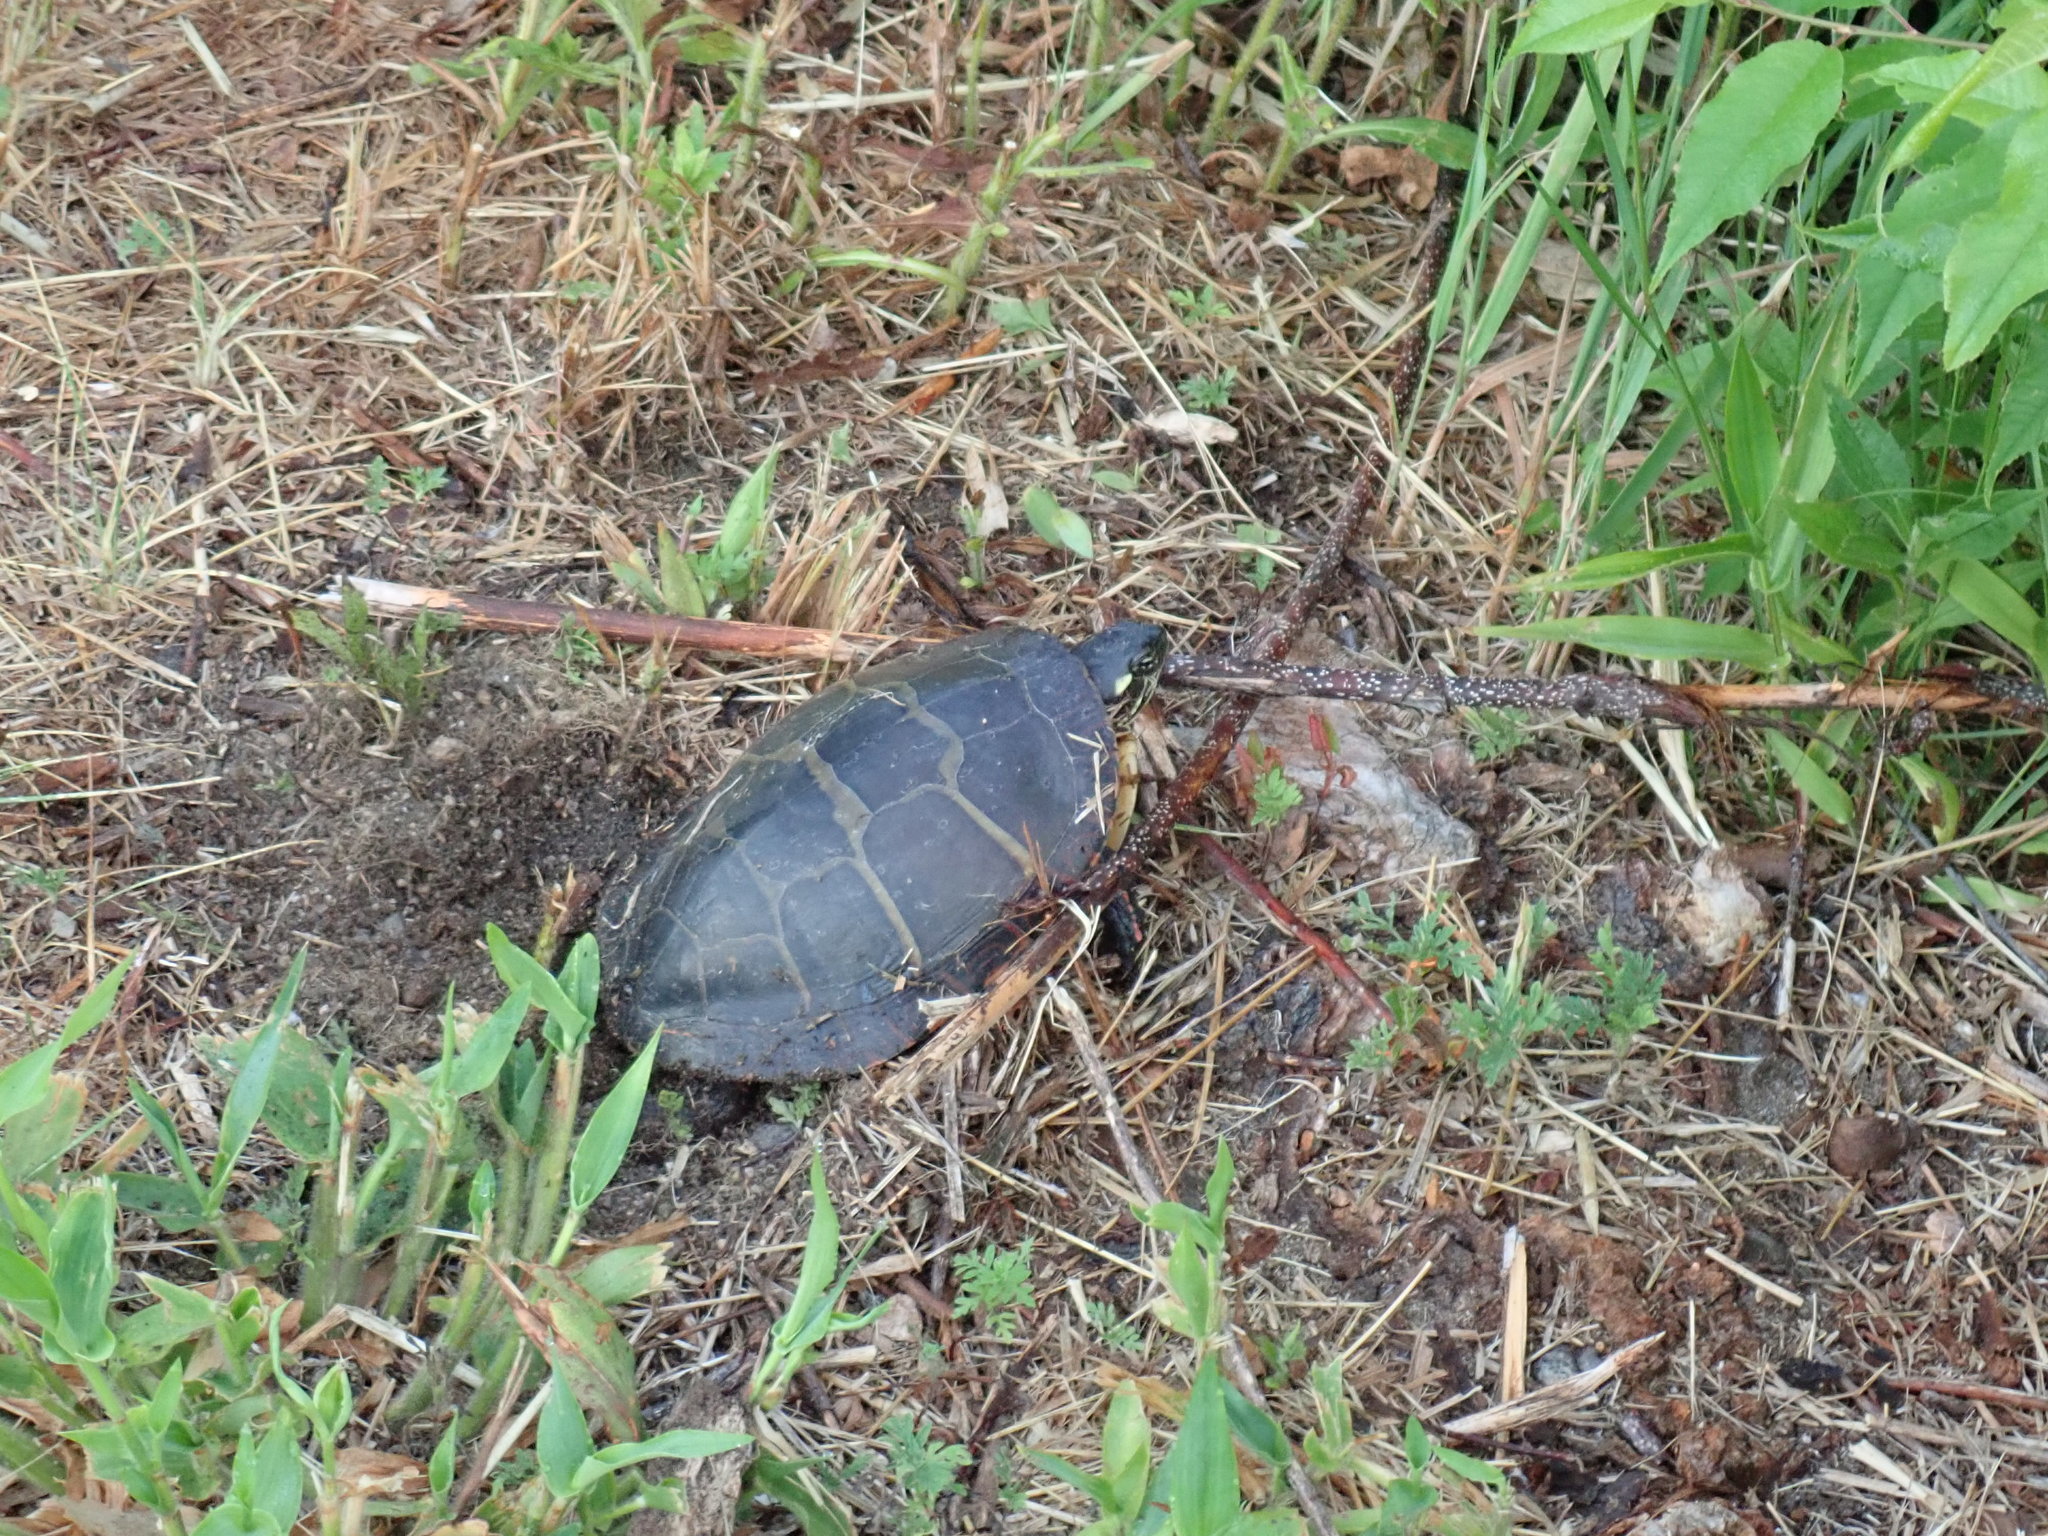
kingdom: Animalia
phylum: Chordata
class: Testudines
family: Emydidae
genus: Chrysemys
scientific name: Chrysemys picta
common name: Painted turtle
